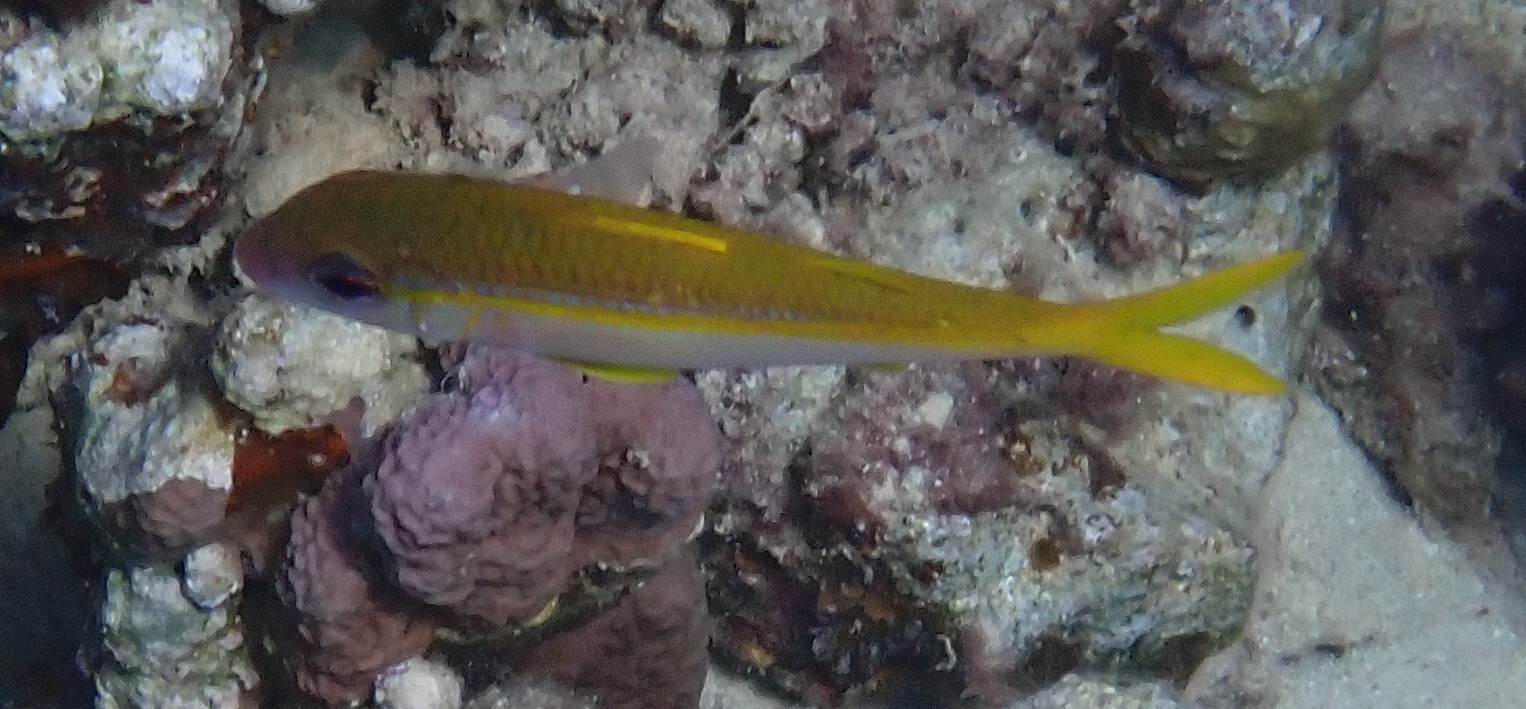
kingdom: Animalia
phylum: Chordata
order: Perciformes
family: Mullidae
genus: Mulloidichthys
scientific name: Mulloidichthys vanicolensis
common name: Yellowfin goatfish
